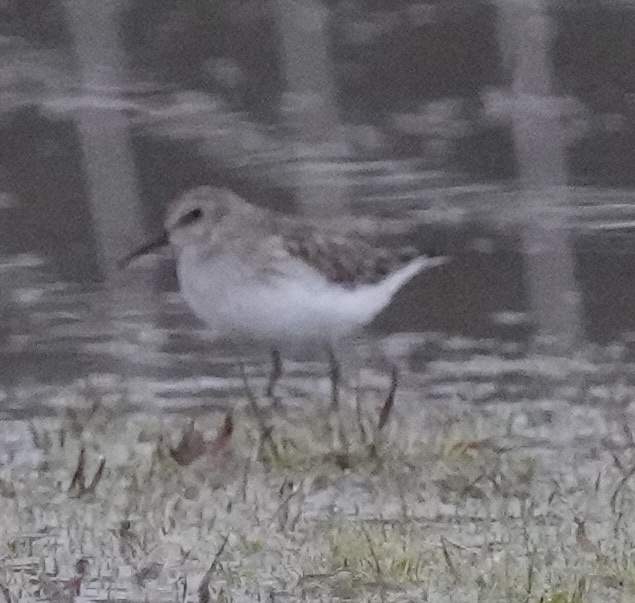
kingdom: Animalia
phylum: Chordata
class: Aves
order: Charadriiformes
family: Scolopacidae
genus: Calidris
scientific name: Calidris minutilla
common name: Least sandpiper
